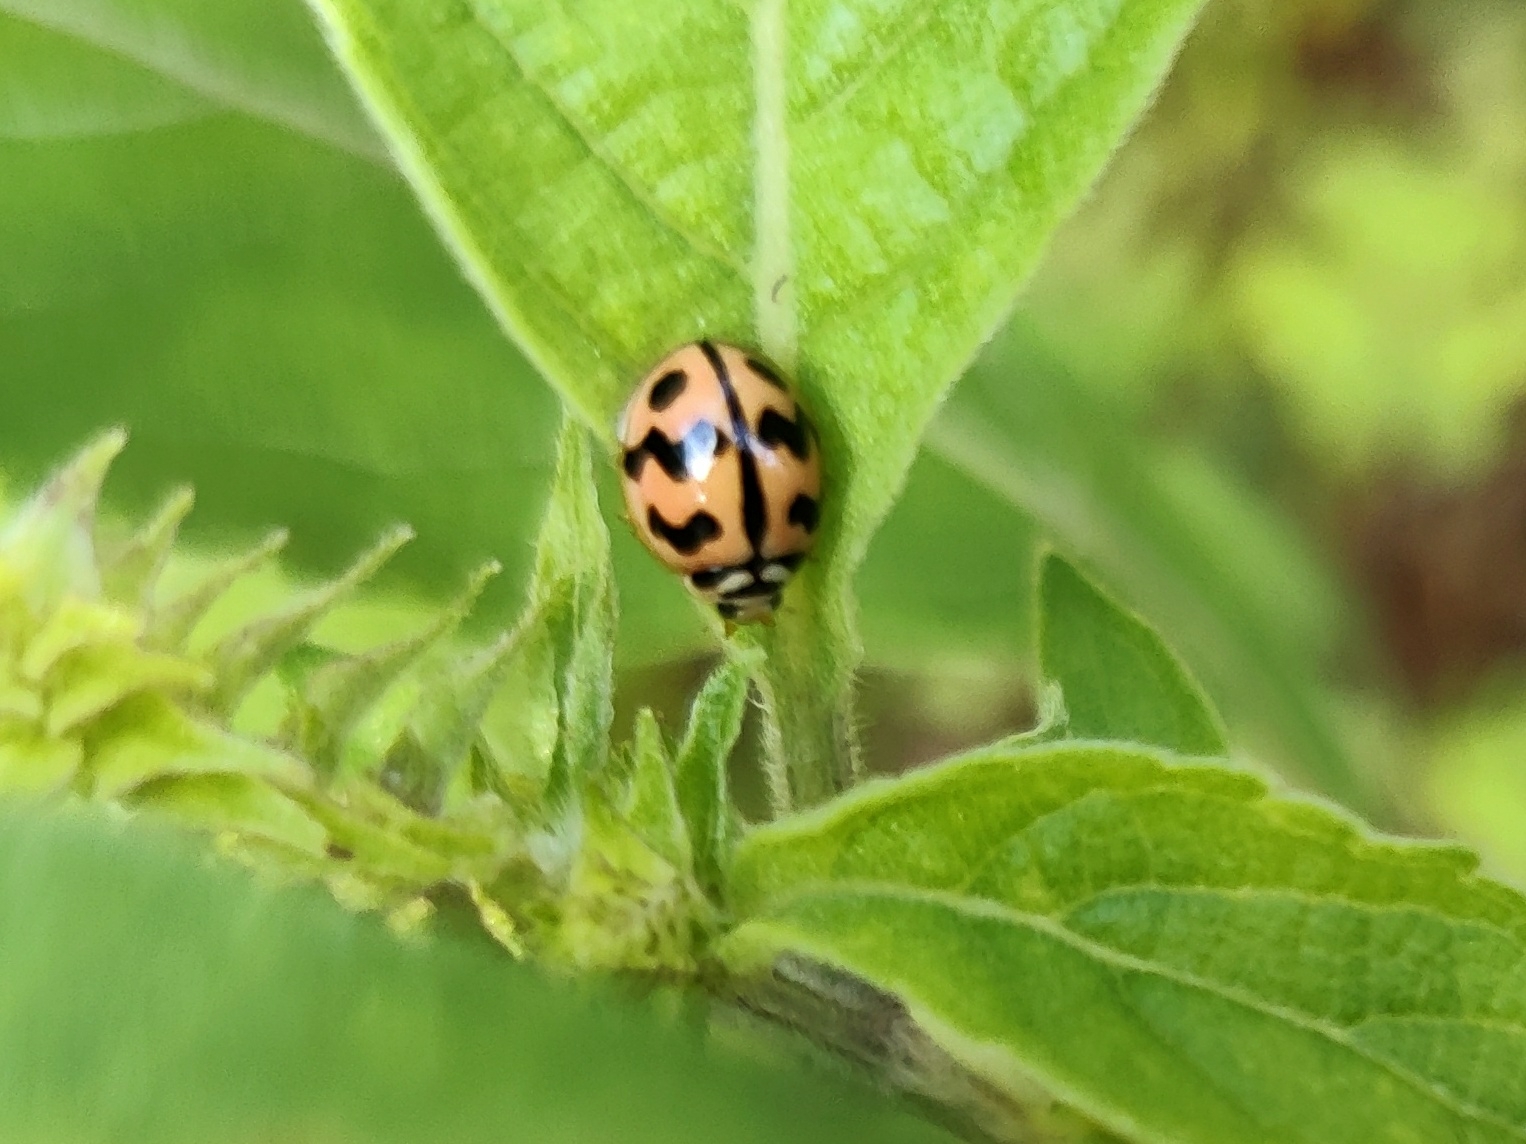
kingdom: Animalia
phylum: Arthropoda
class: Insecta
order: Coleoptera
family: Coccinellidae
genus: Cheilomenes
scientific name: Cheilomenes sexmaculata
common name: Ladybird beetle
